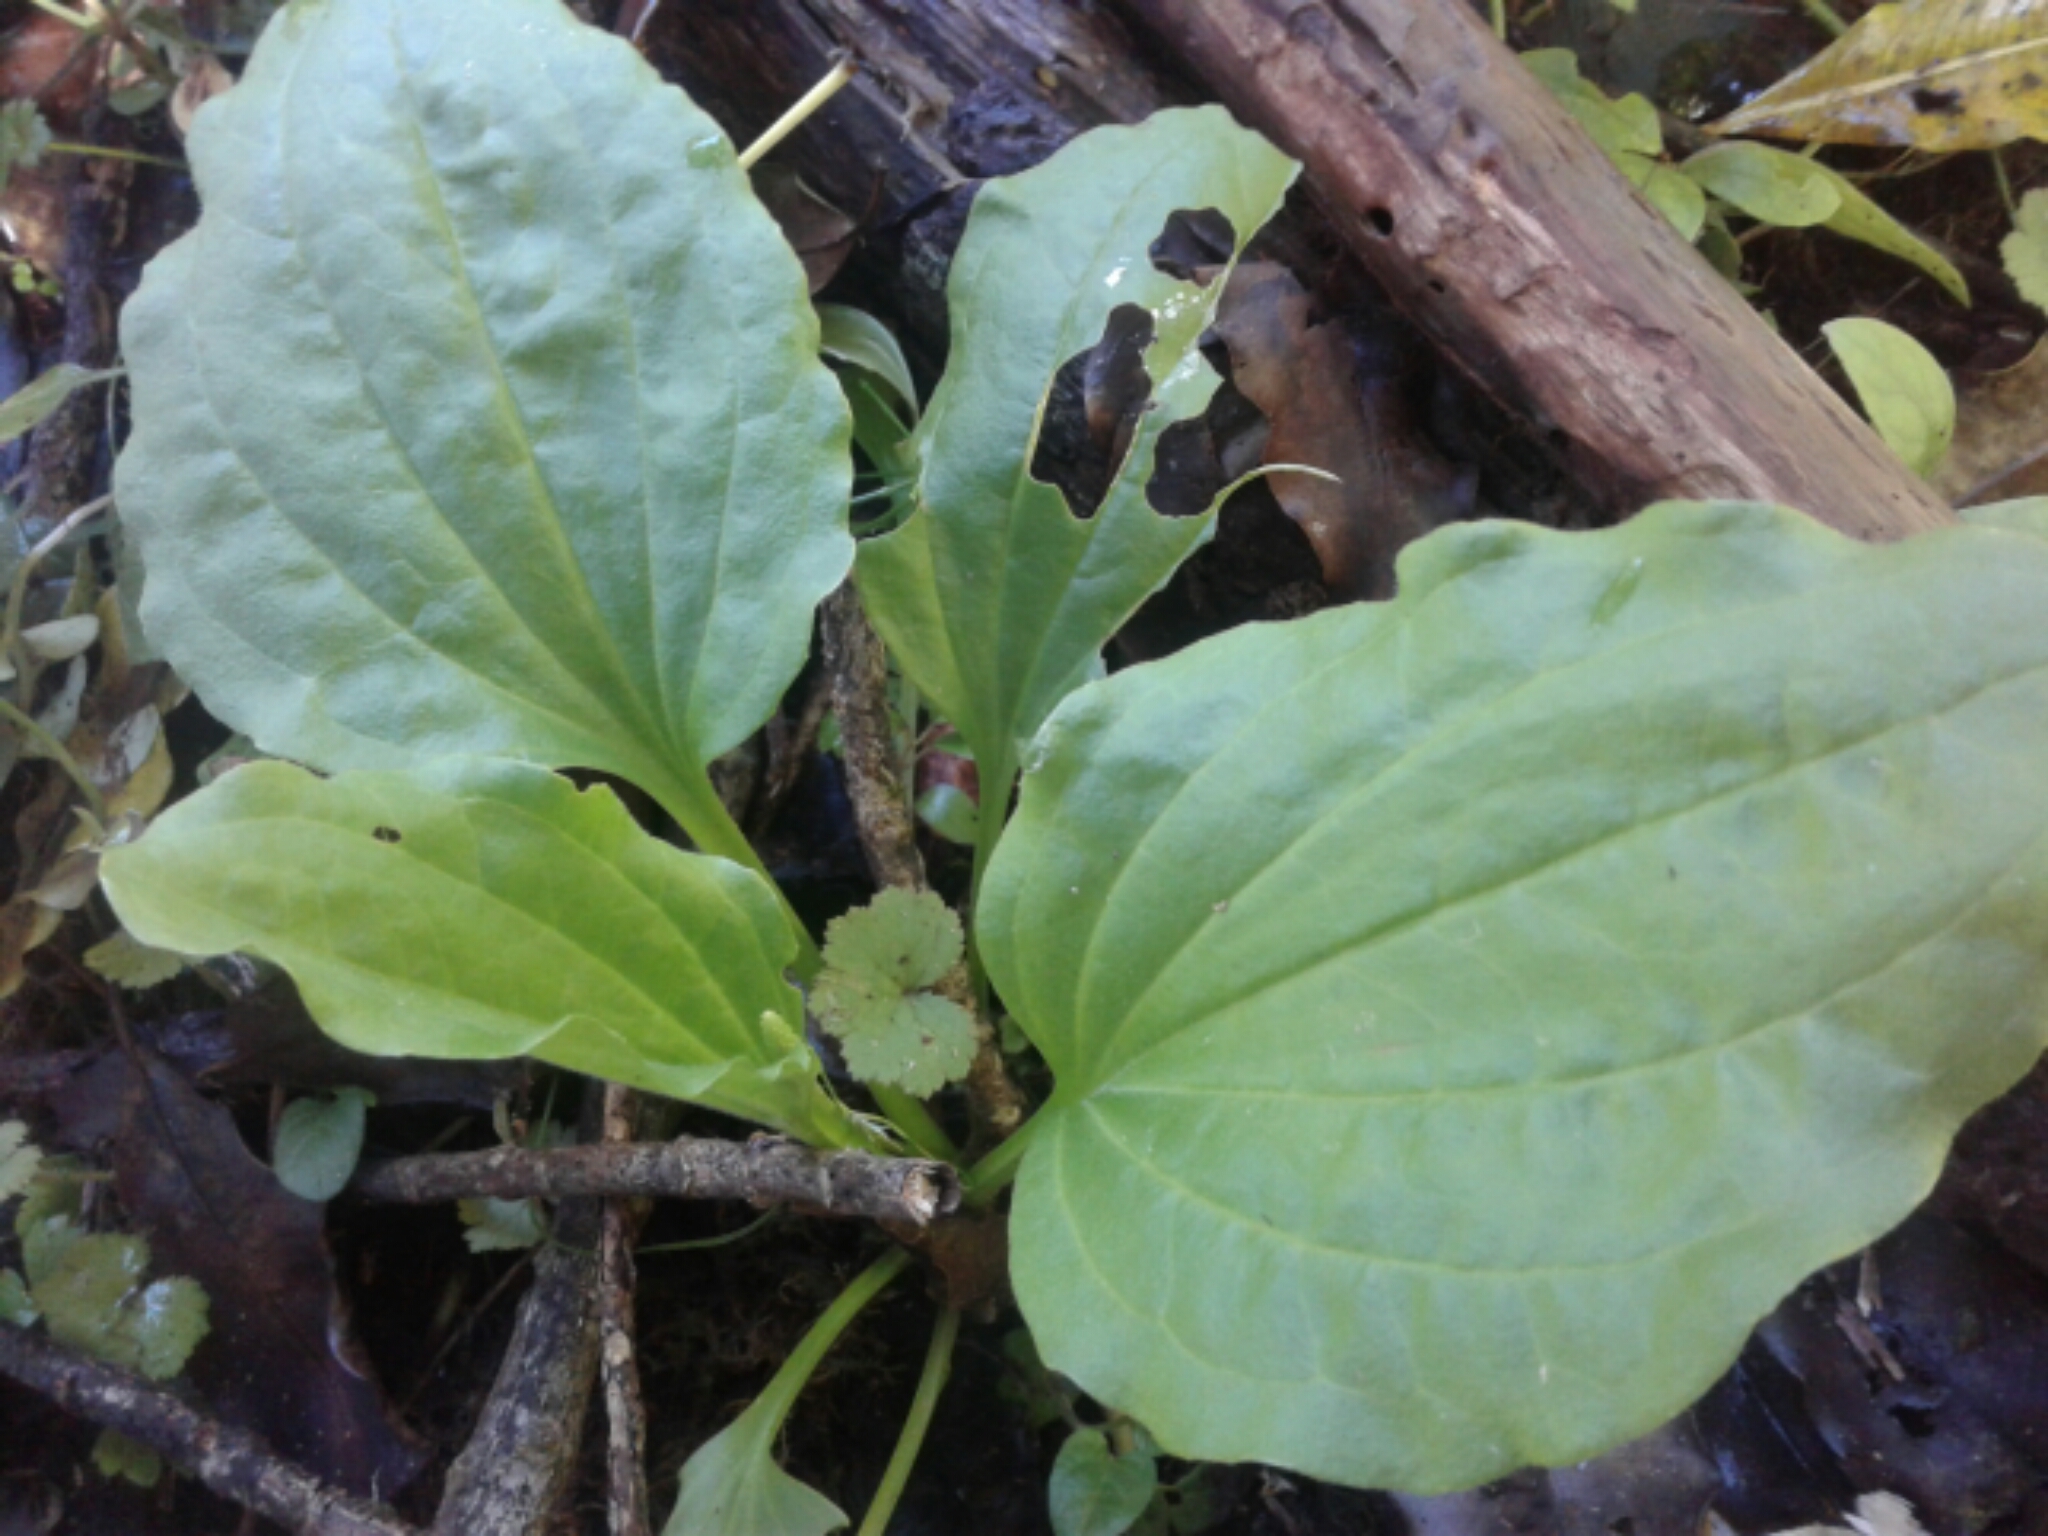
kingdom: Plantae
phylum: Tracheophyta
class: Magnoliopsida
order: Lamiales
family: Plantaginaceae
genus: Plantago
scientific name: Plantago major
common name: Common plantain
